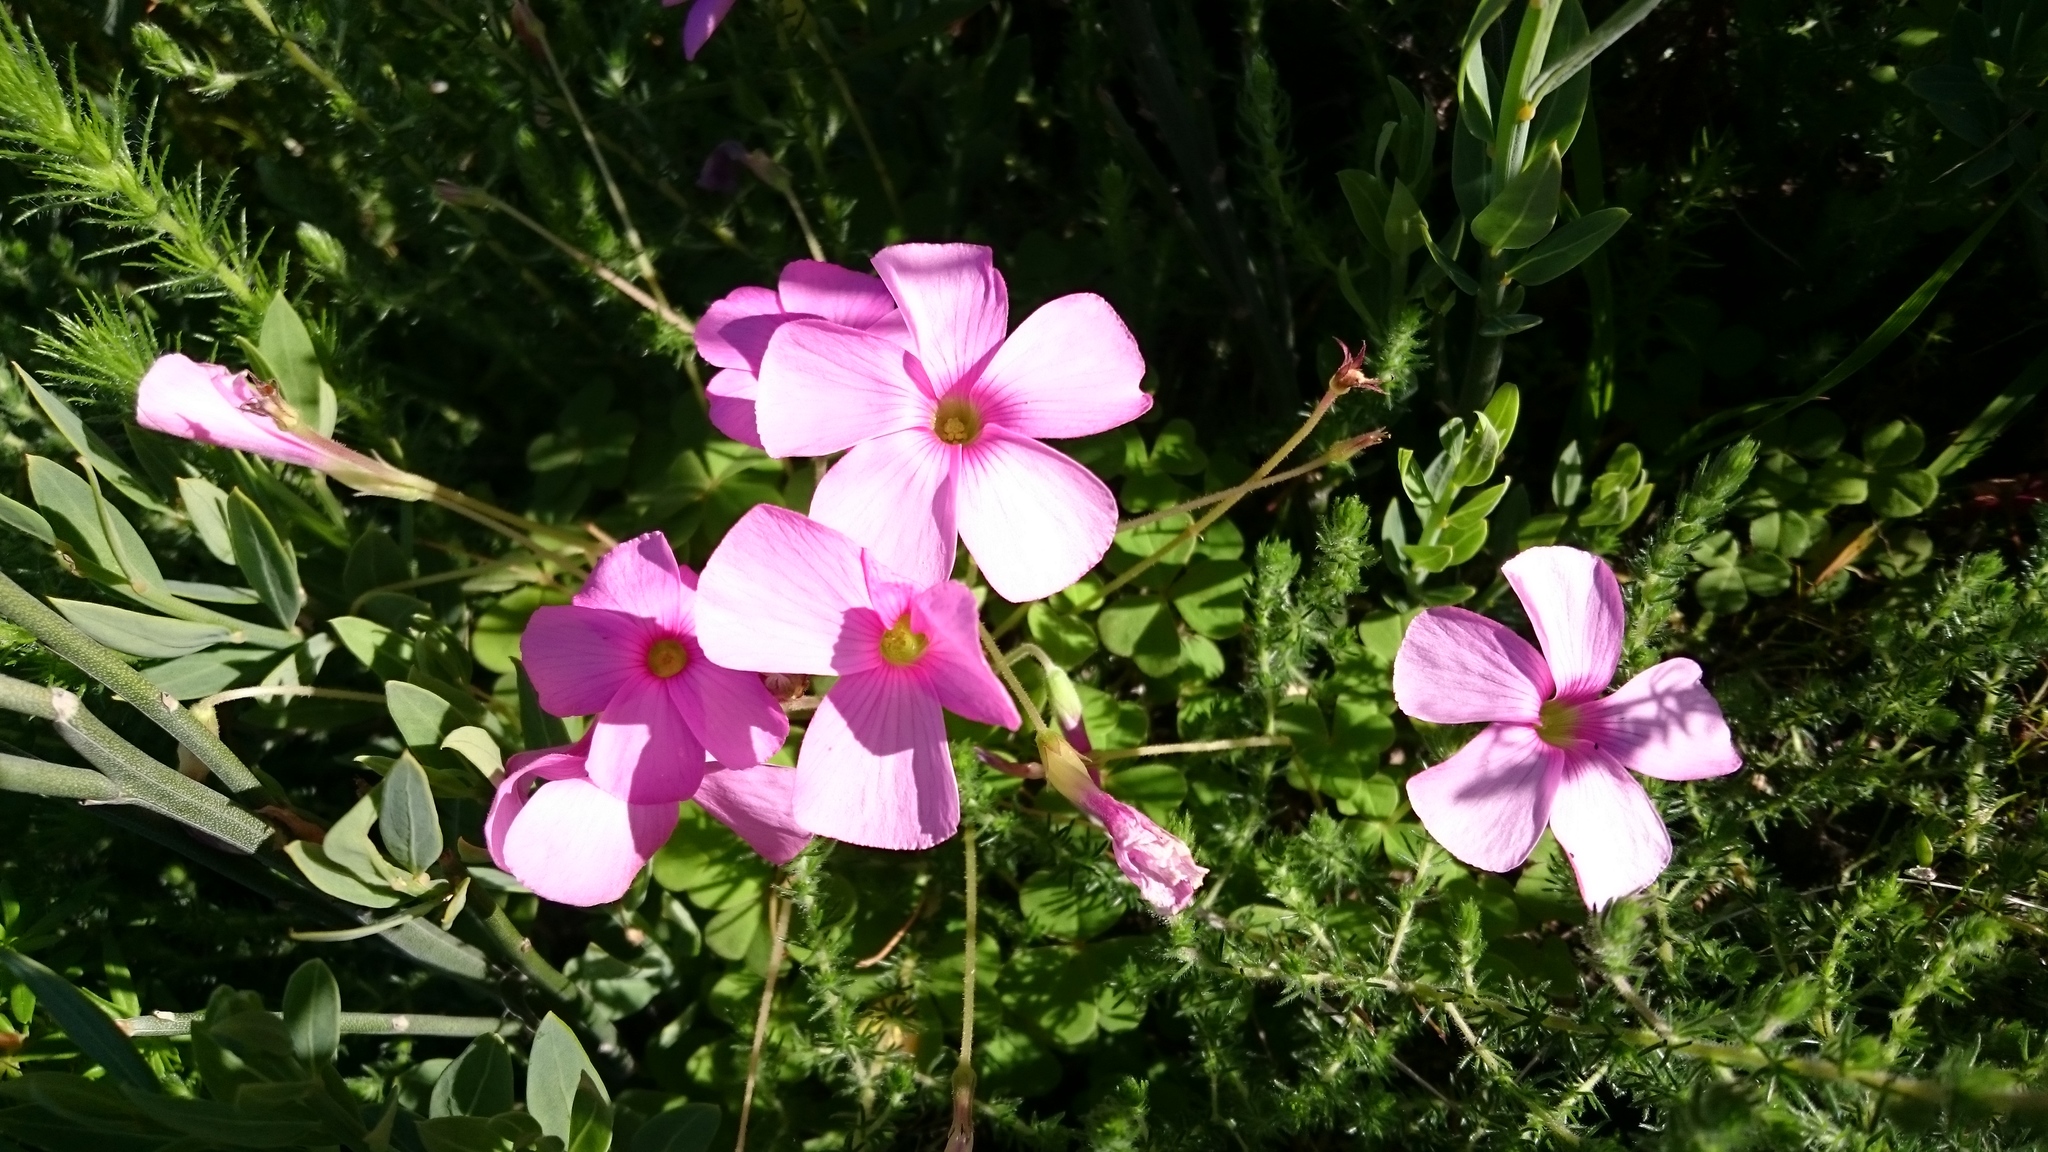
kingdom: Plantae
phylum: Tracheophyta
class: Magnoliopsida
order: Oxalidales
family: Oxalidaceae
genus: Oxalis
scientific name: Oxalis lanata
